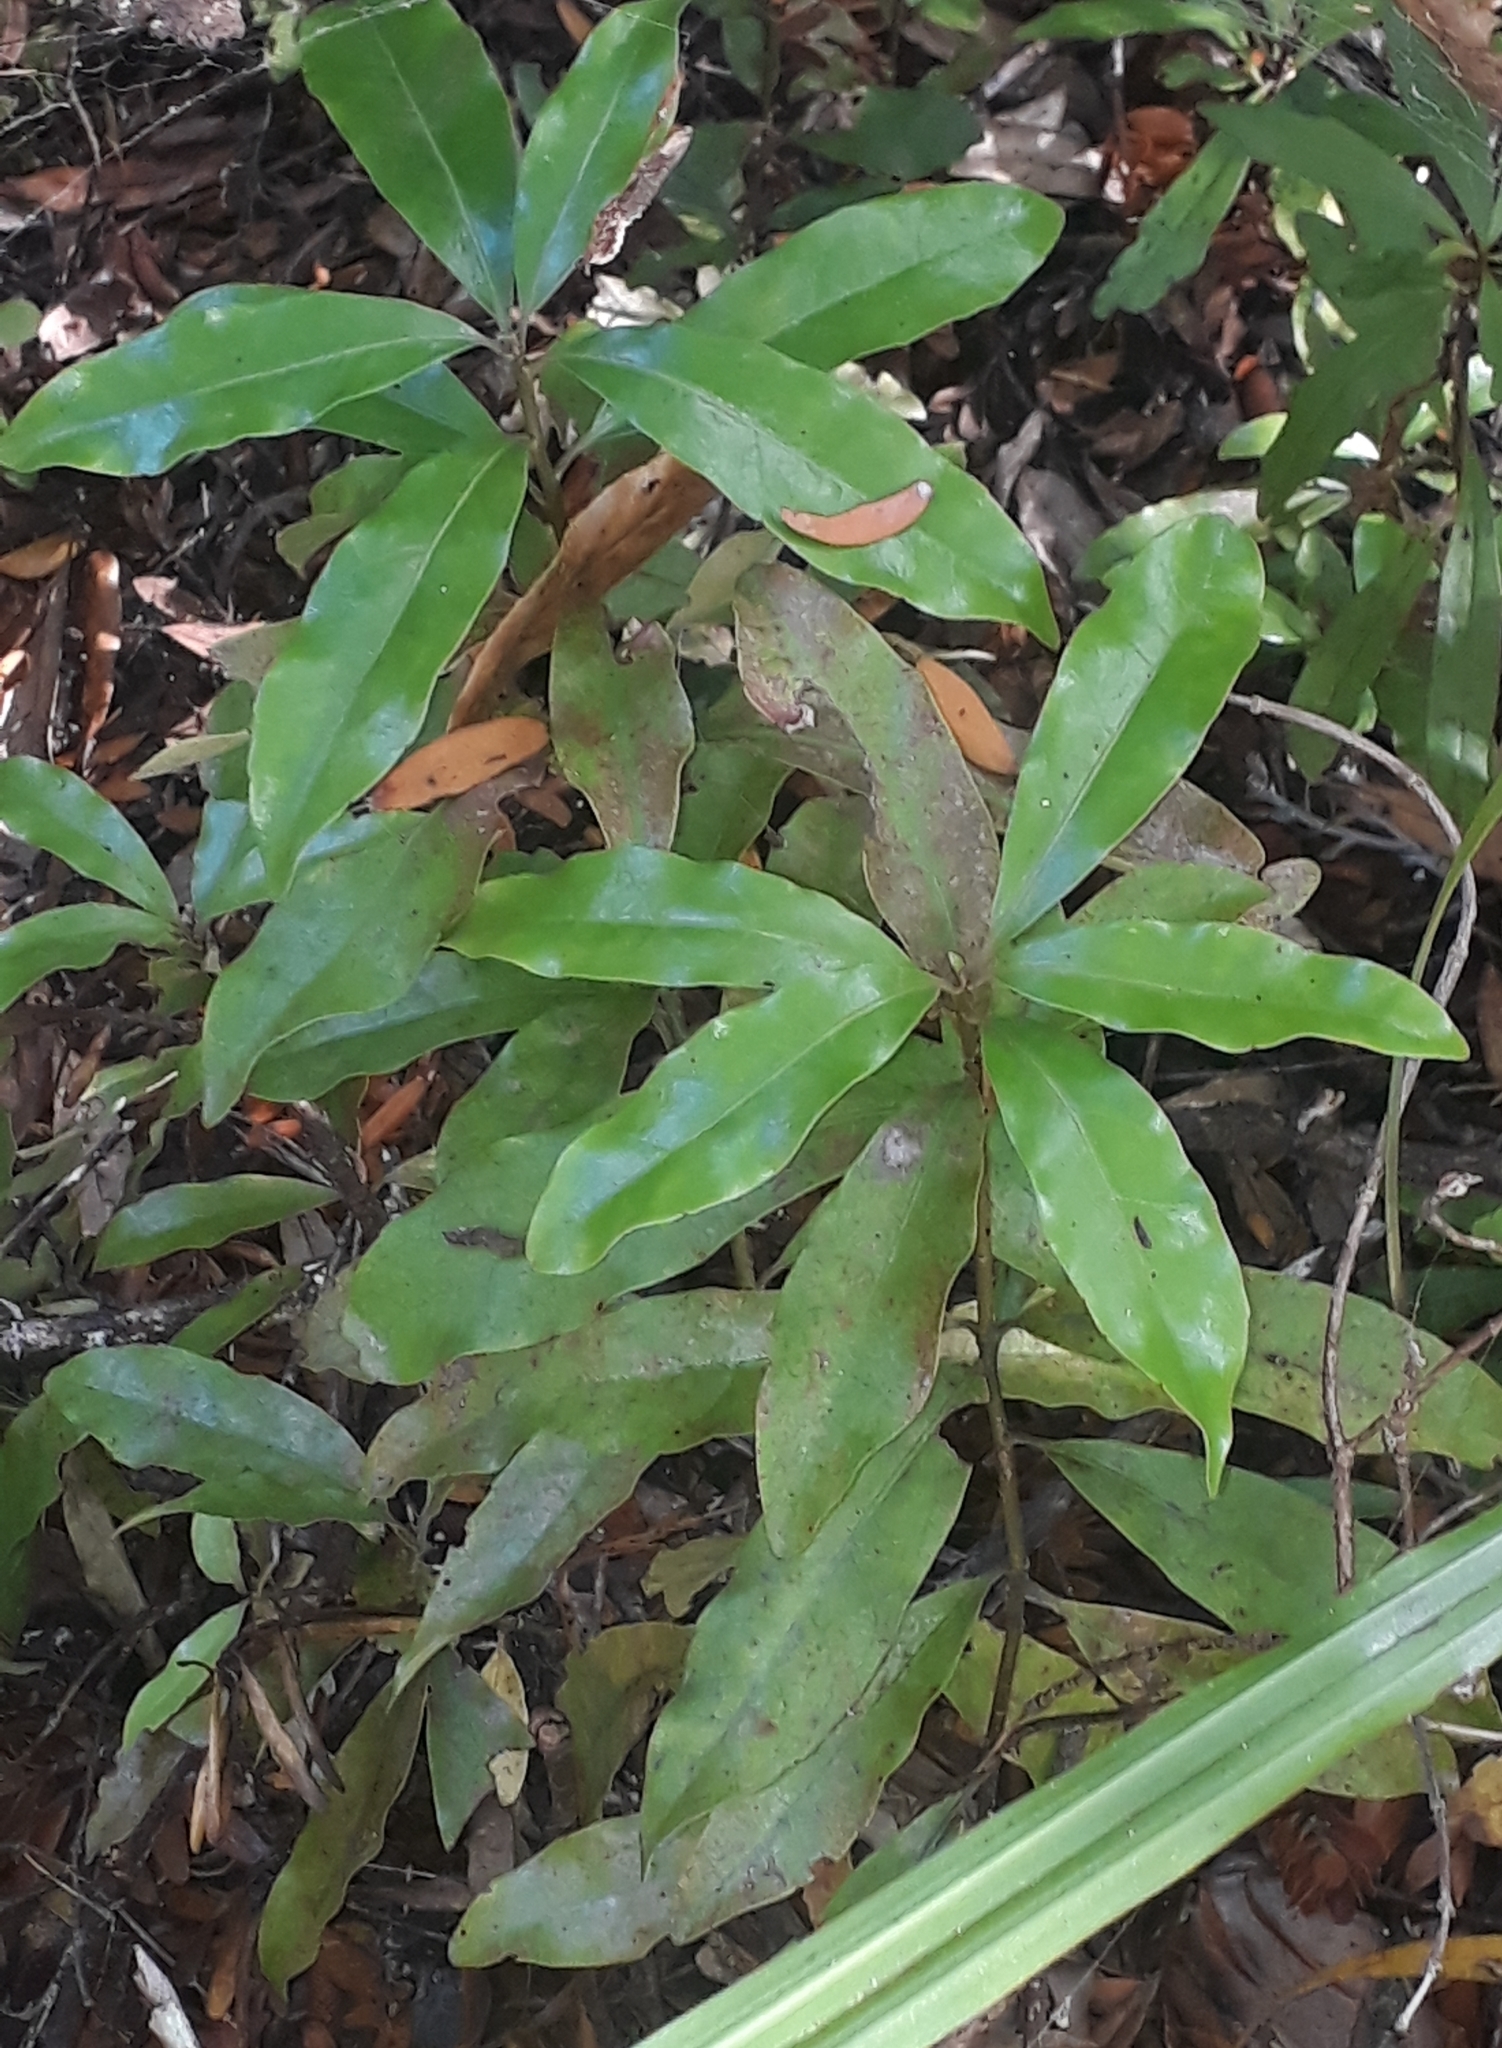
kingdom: Plantae
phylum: Tracheophyta
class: Magnoliopsida
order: Asterales
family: Alseuosmiaceae
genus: Alseuosmia
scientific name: Alseuosmia macrophylla
